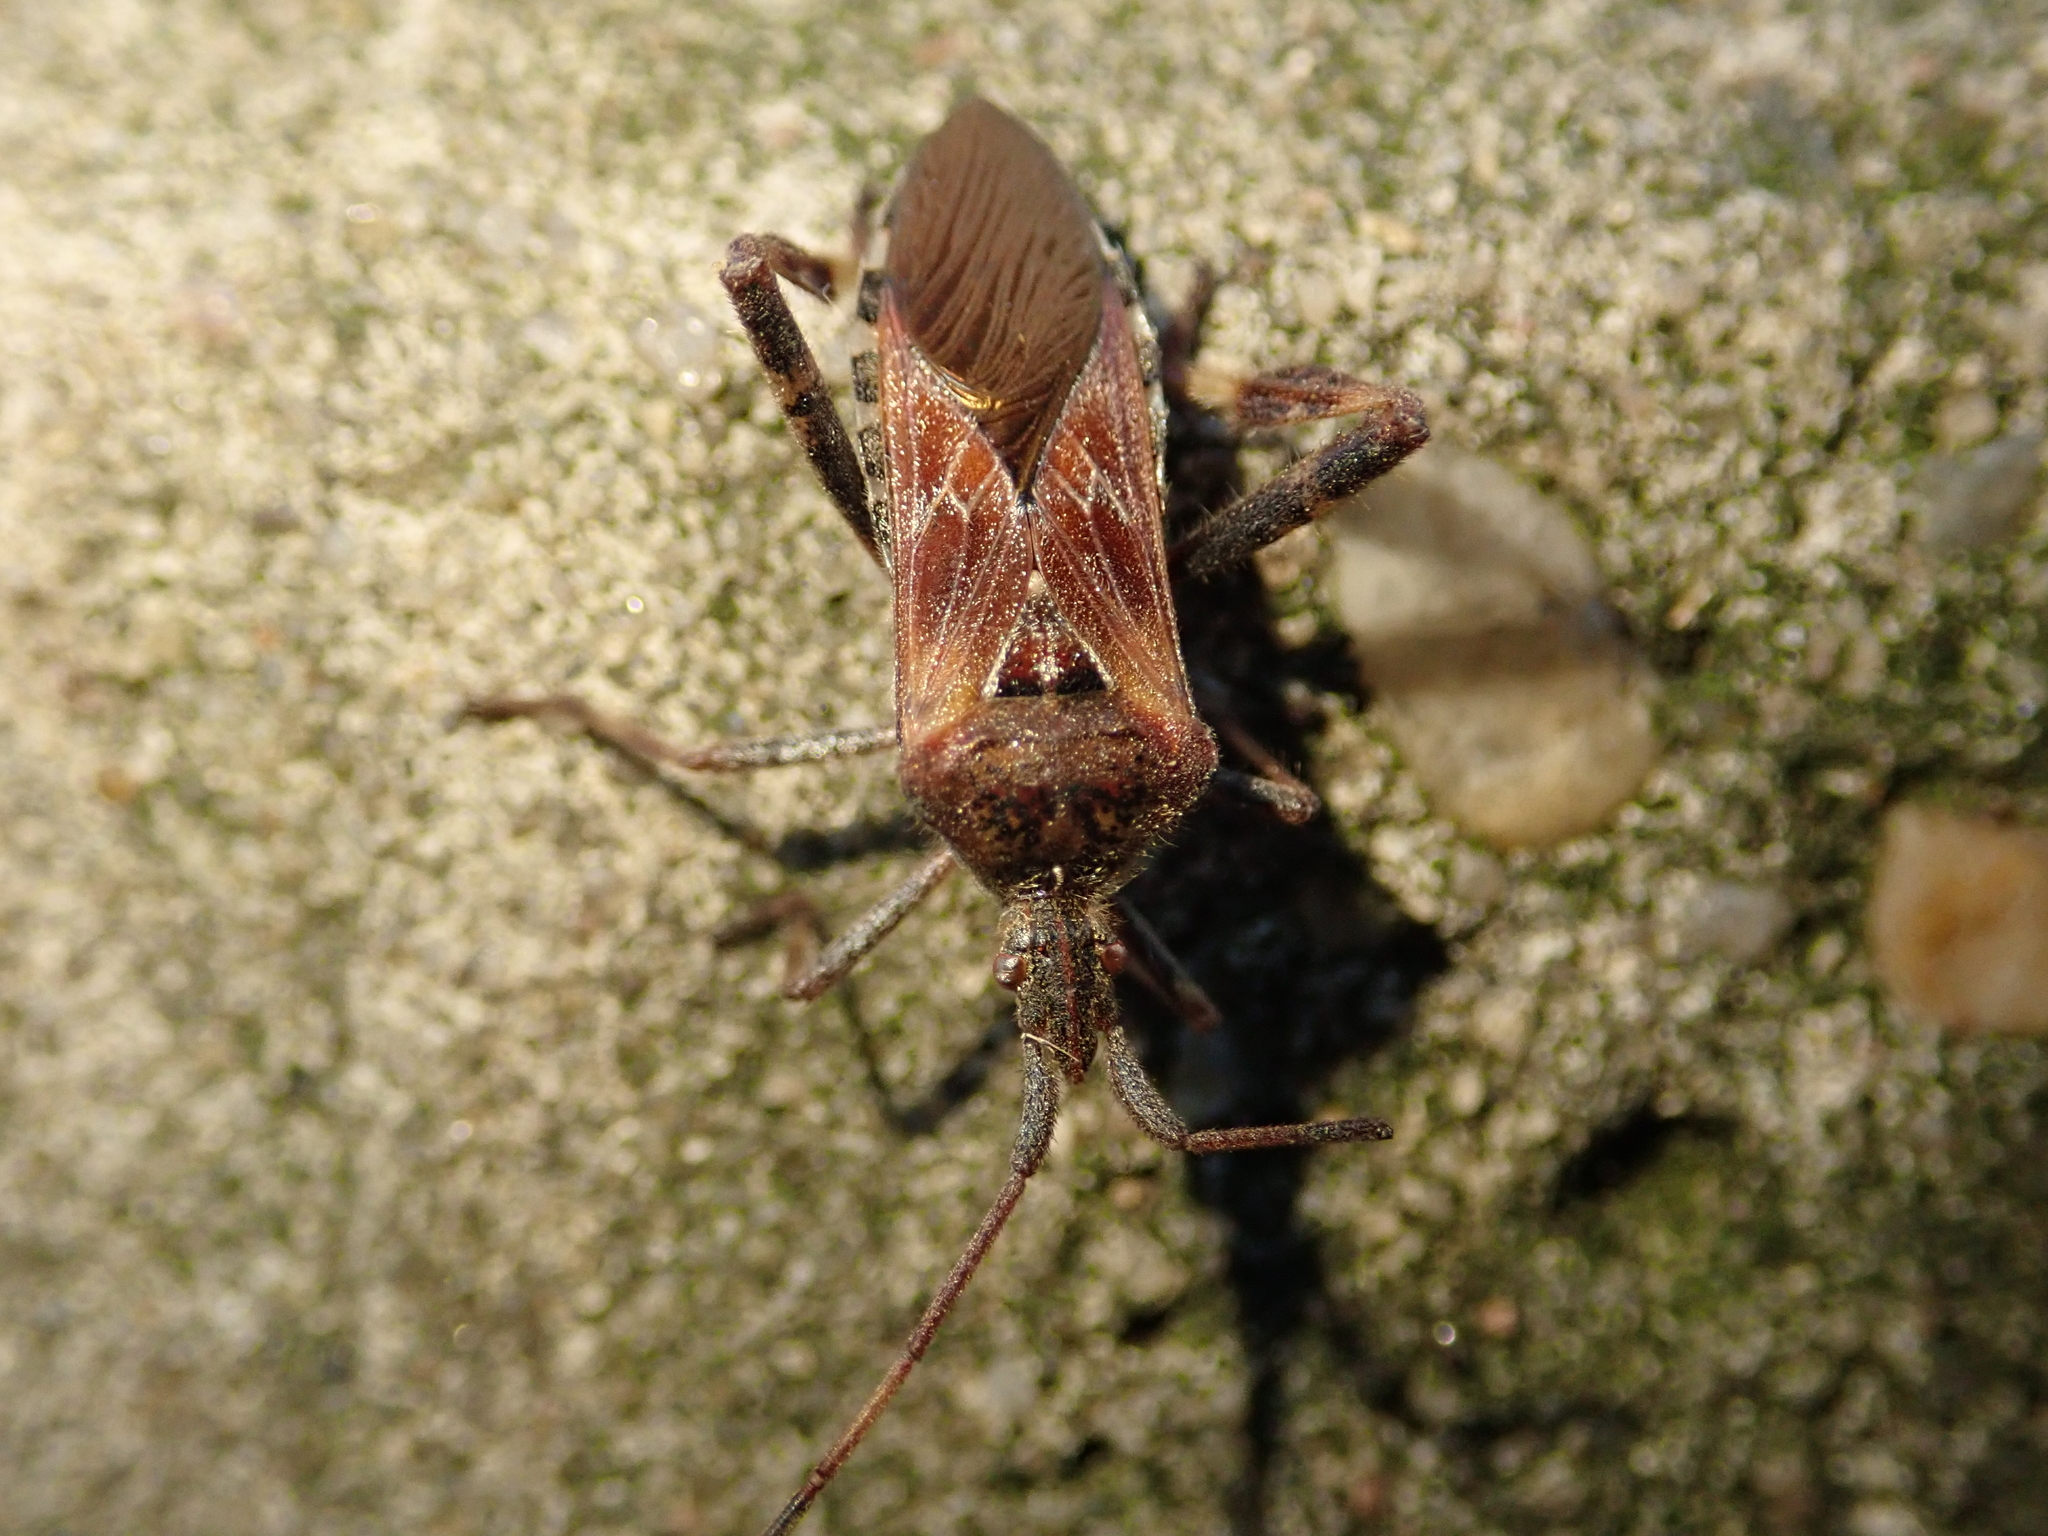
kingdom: Animalia
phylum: Arthropoda
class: Insecta
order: Hemiptera
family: Coreidae
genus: Leptoglossus
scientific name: Leptoglossus occidentalis
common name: Western conifer-seed bug
